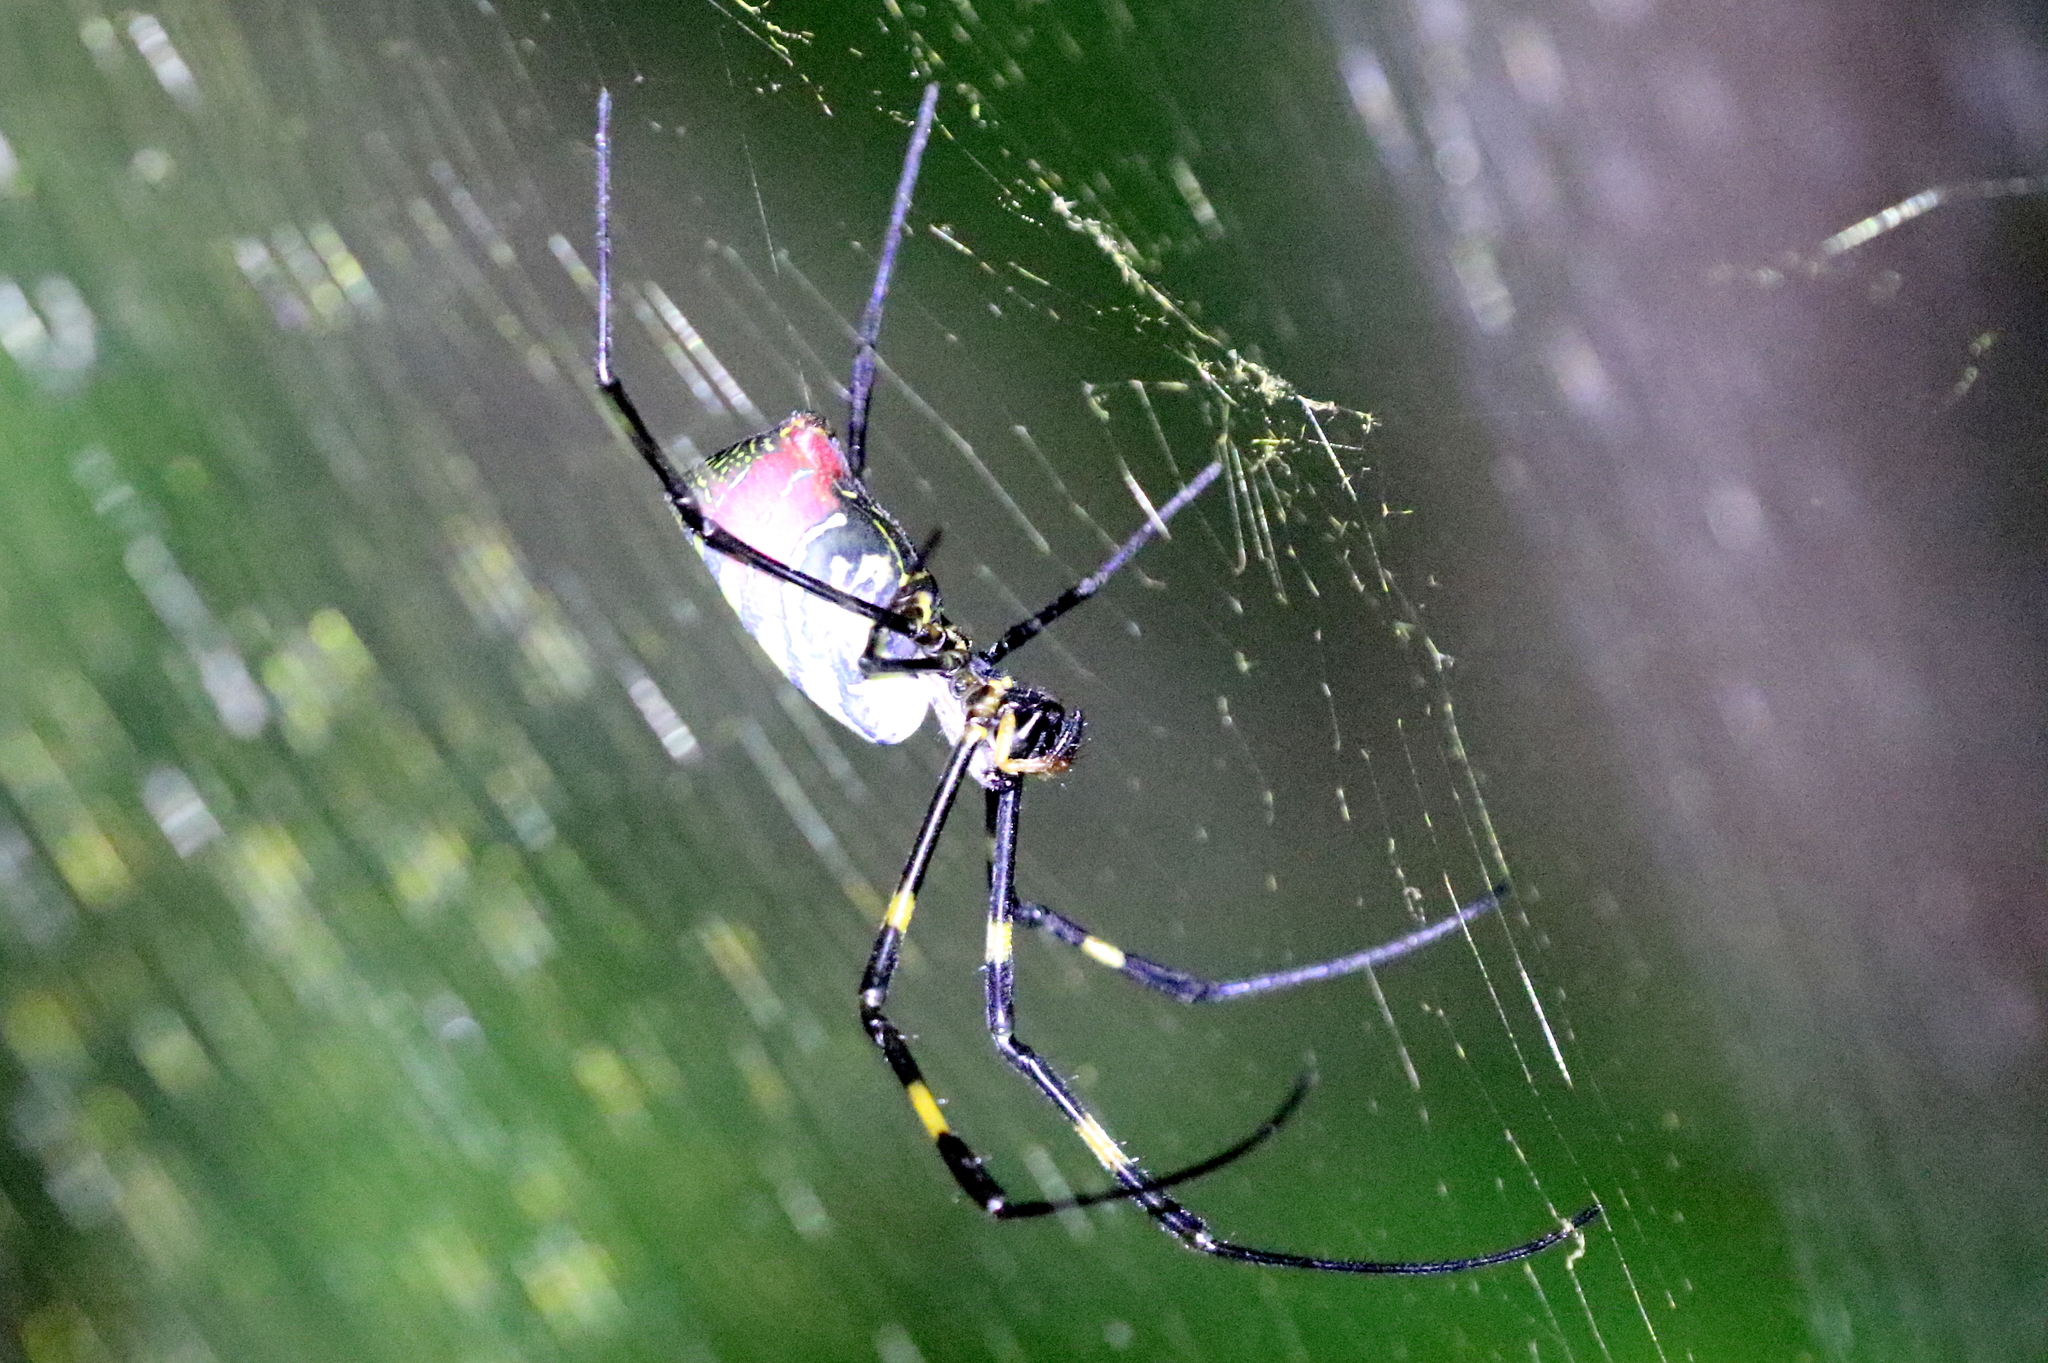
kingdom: Animalia
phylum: Arthropoda
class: Arachnida
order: Araneae
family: Araneidae
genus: Trichonephila
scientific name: Trichonephila clavata
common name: Jorō spider
